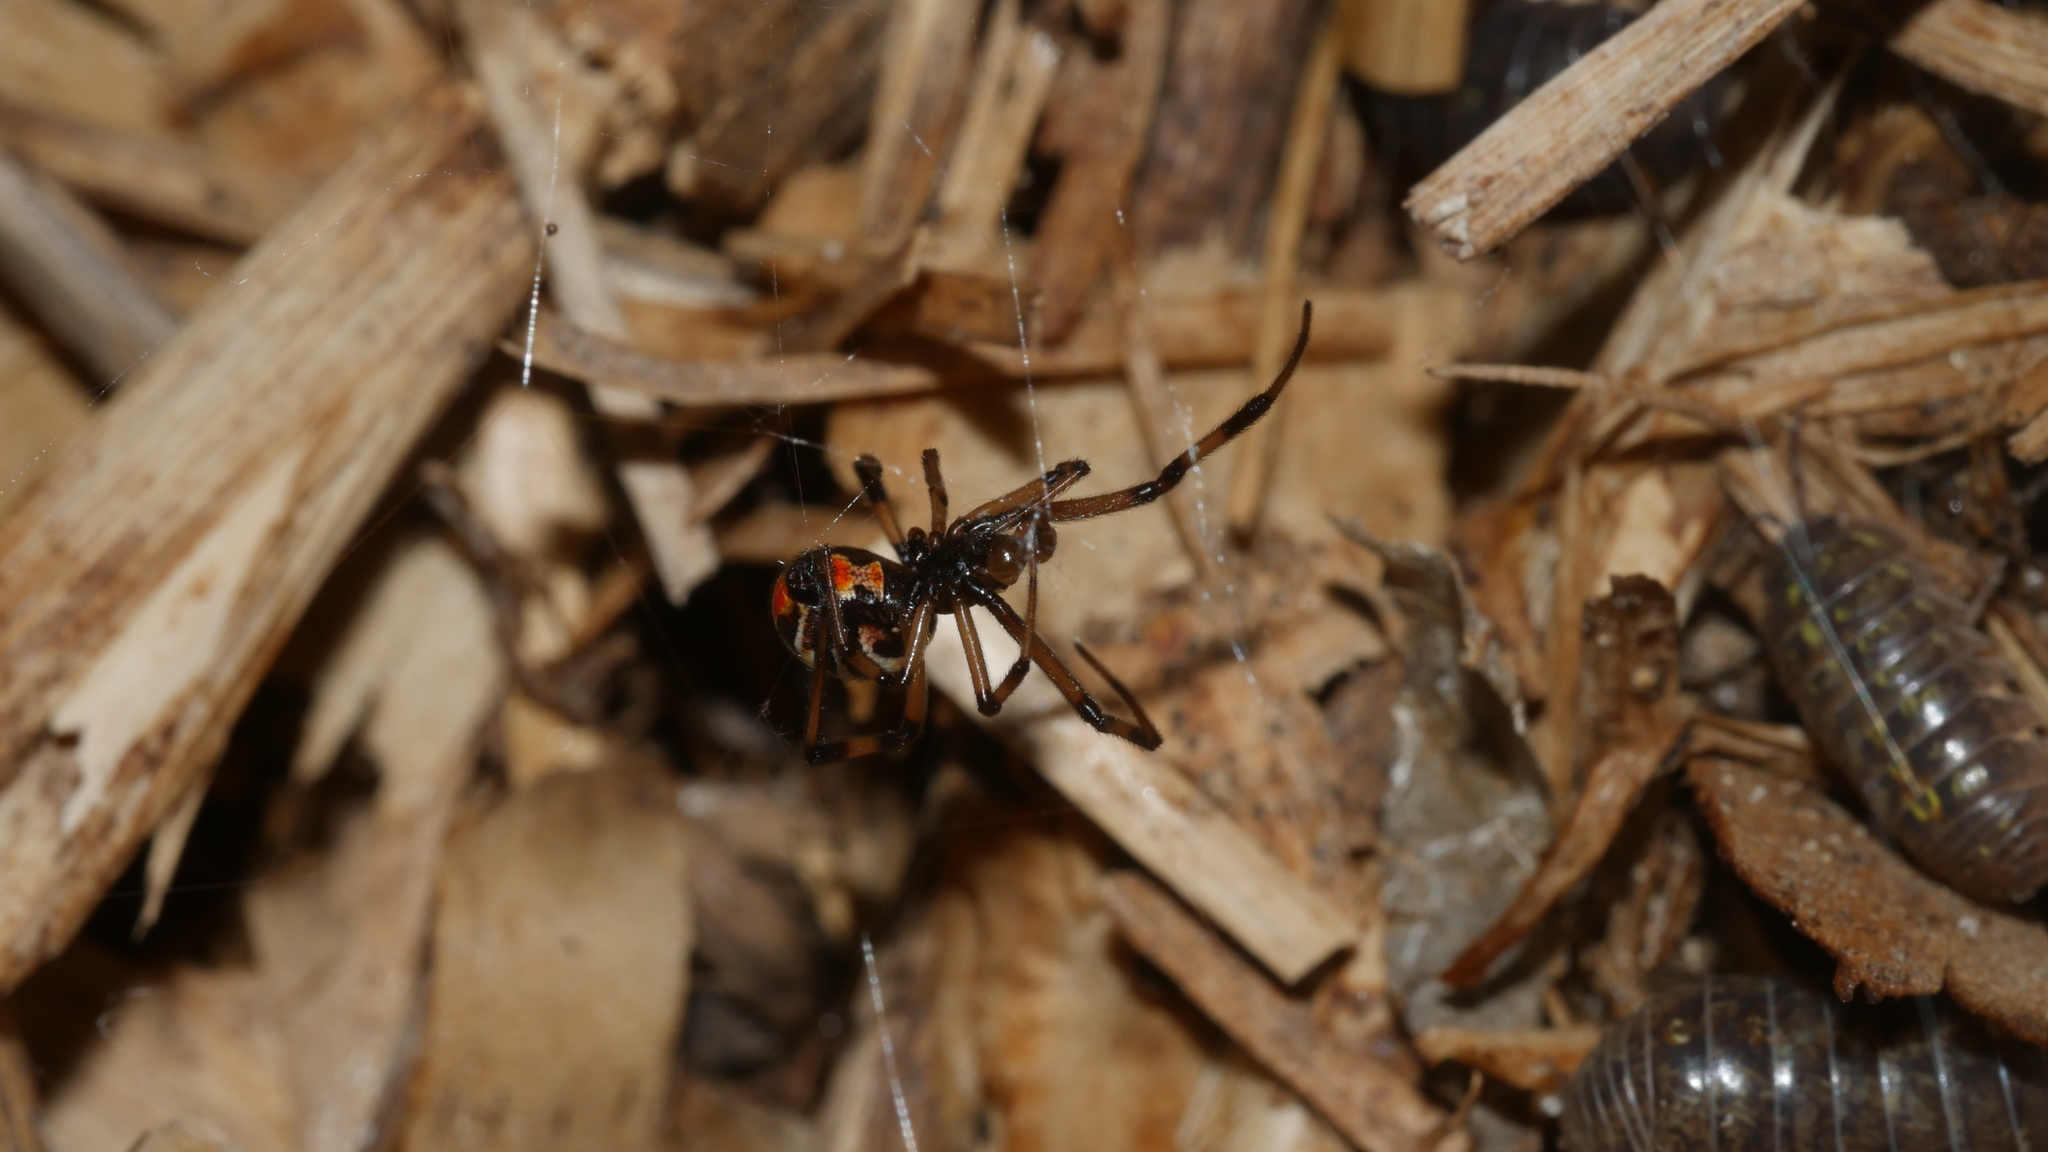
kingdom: Animalia
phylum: Arthropoda
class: Arachnida
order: Araneae
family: Theridiidae
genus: Latrodectus
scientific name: Latrodectus mactans
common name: Cobweb spiders
